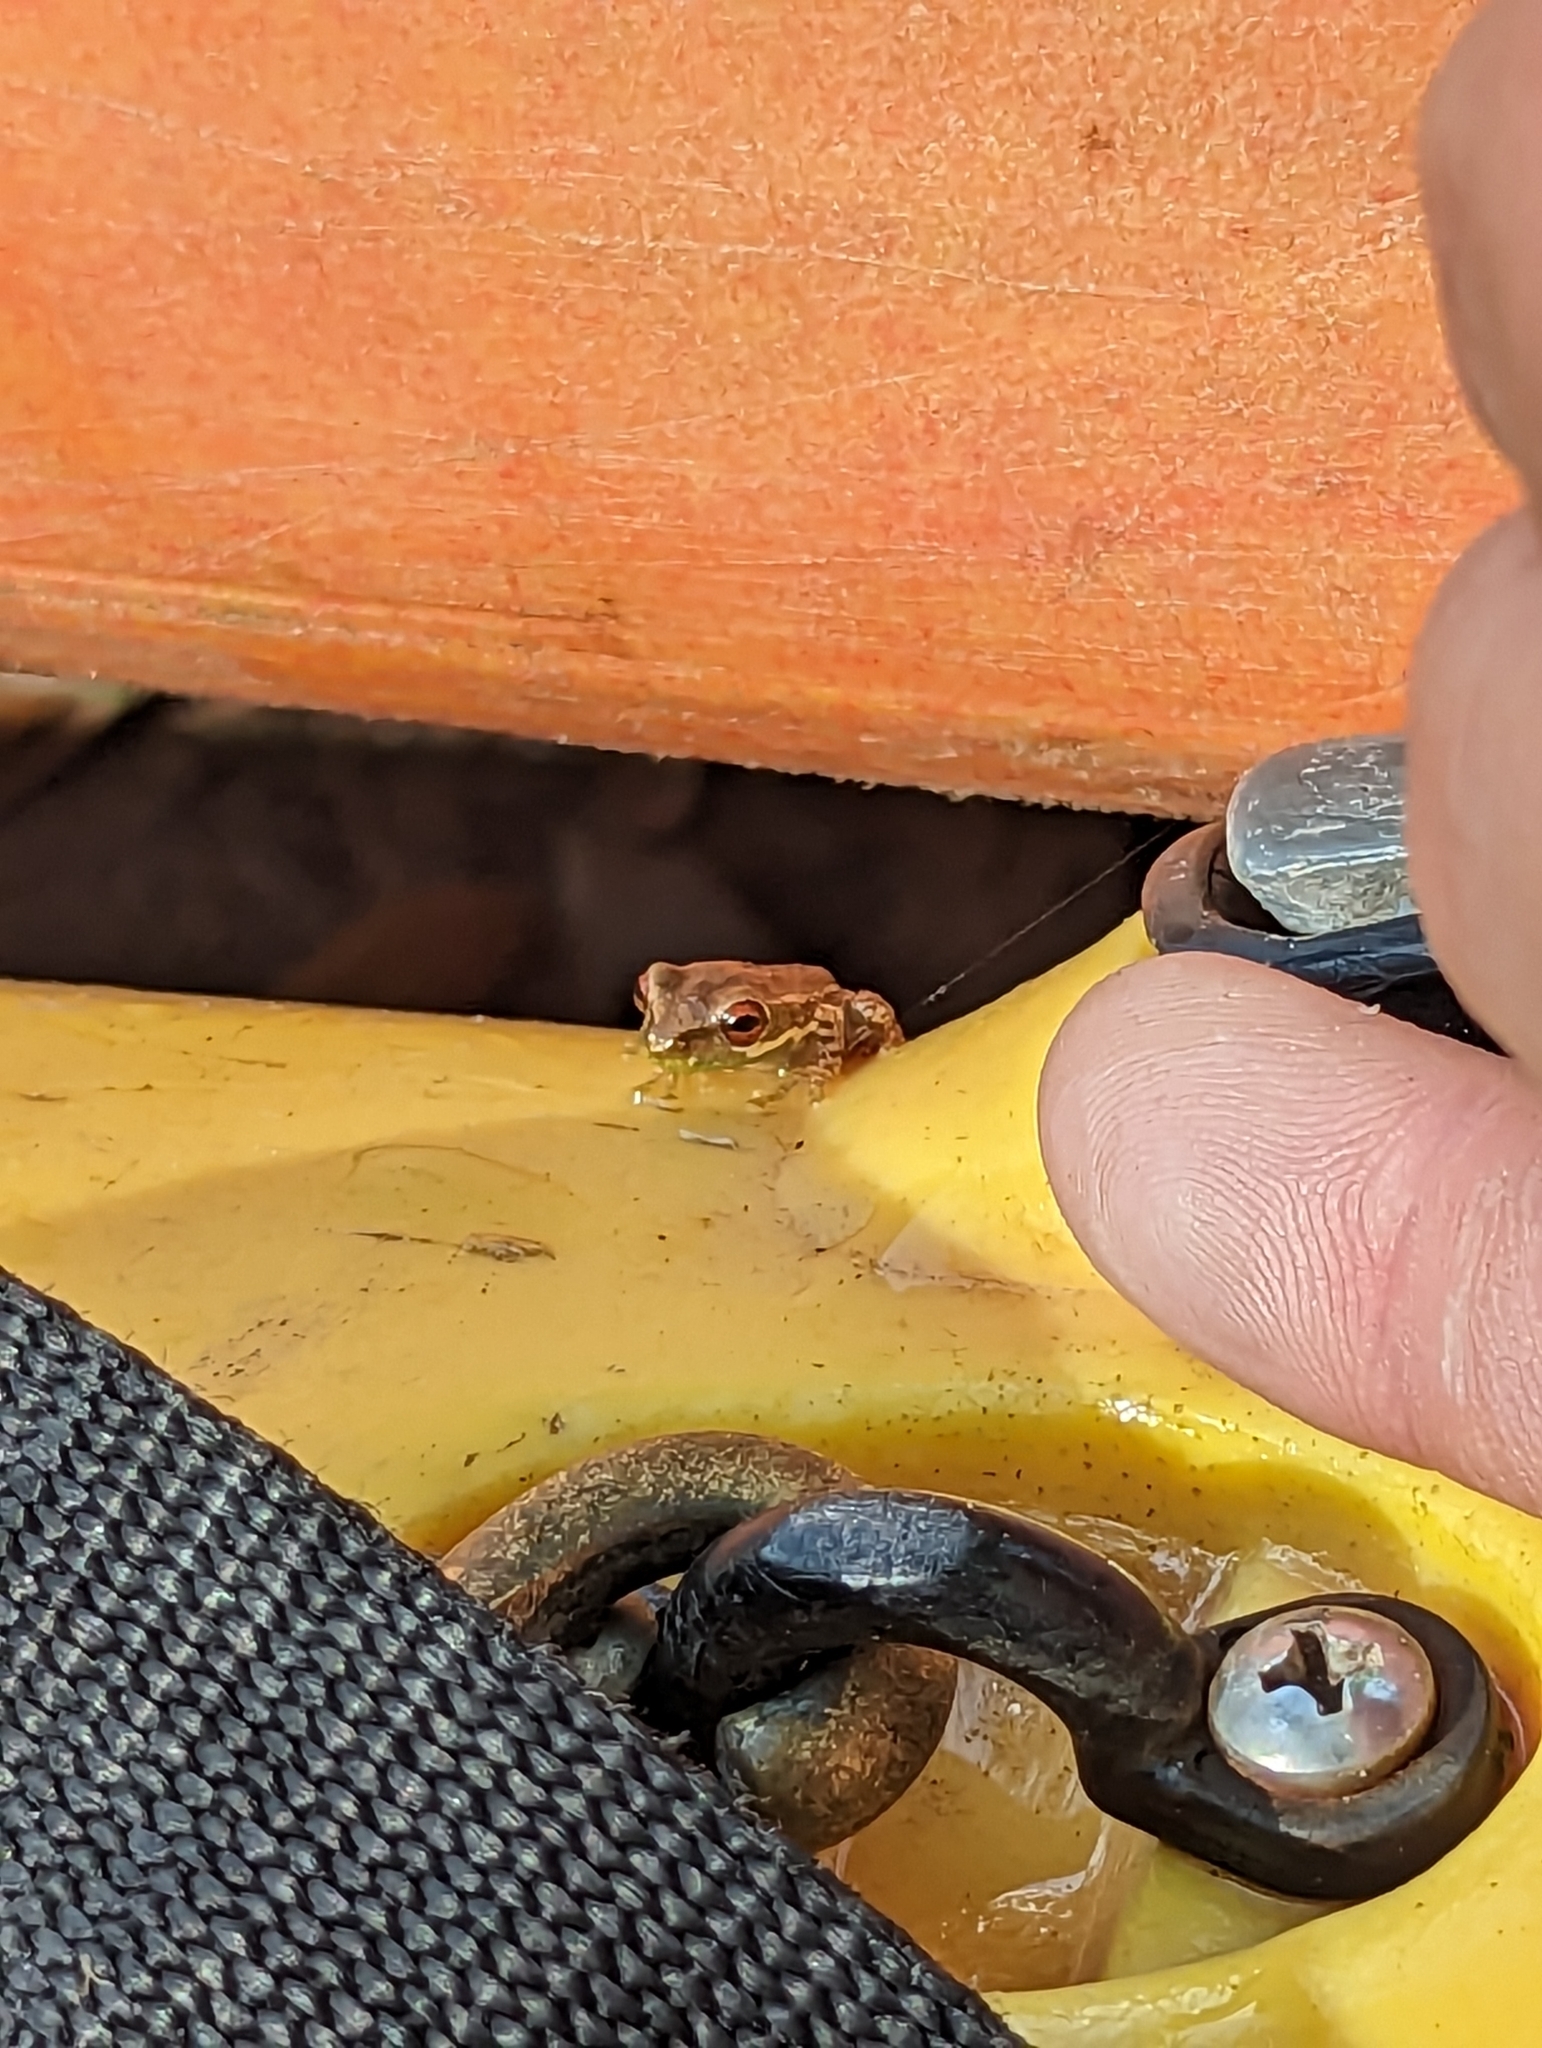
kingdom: Animalia
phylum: Chordata
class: Amphibia
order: Anura
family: Hylidae
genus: Osteopilus
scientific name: Osteopilus septentrionalis
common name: Cuban treefrog
